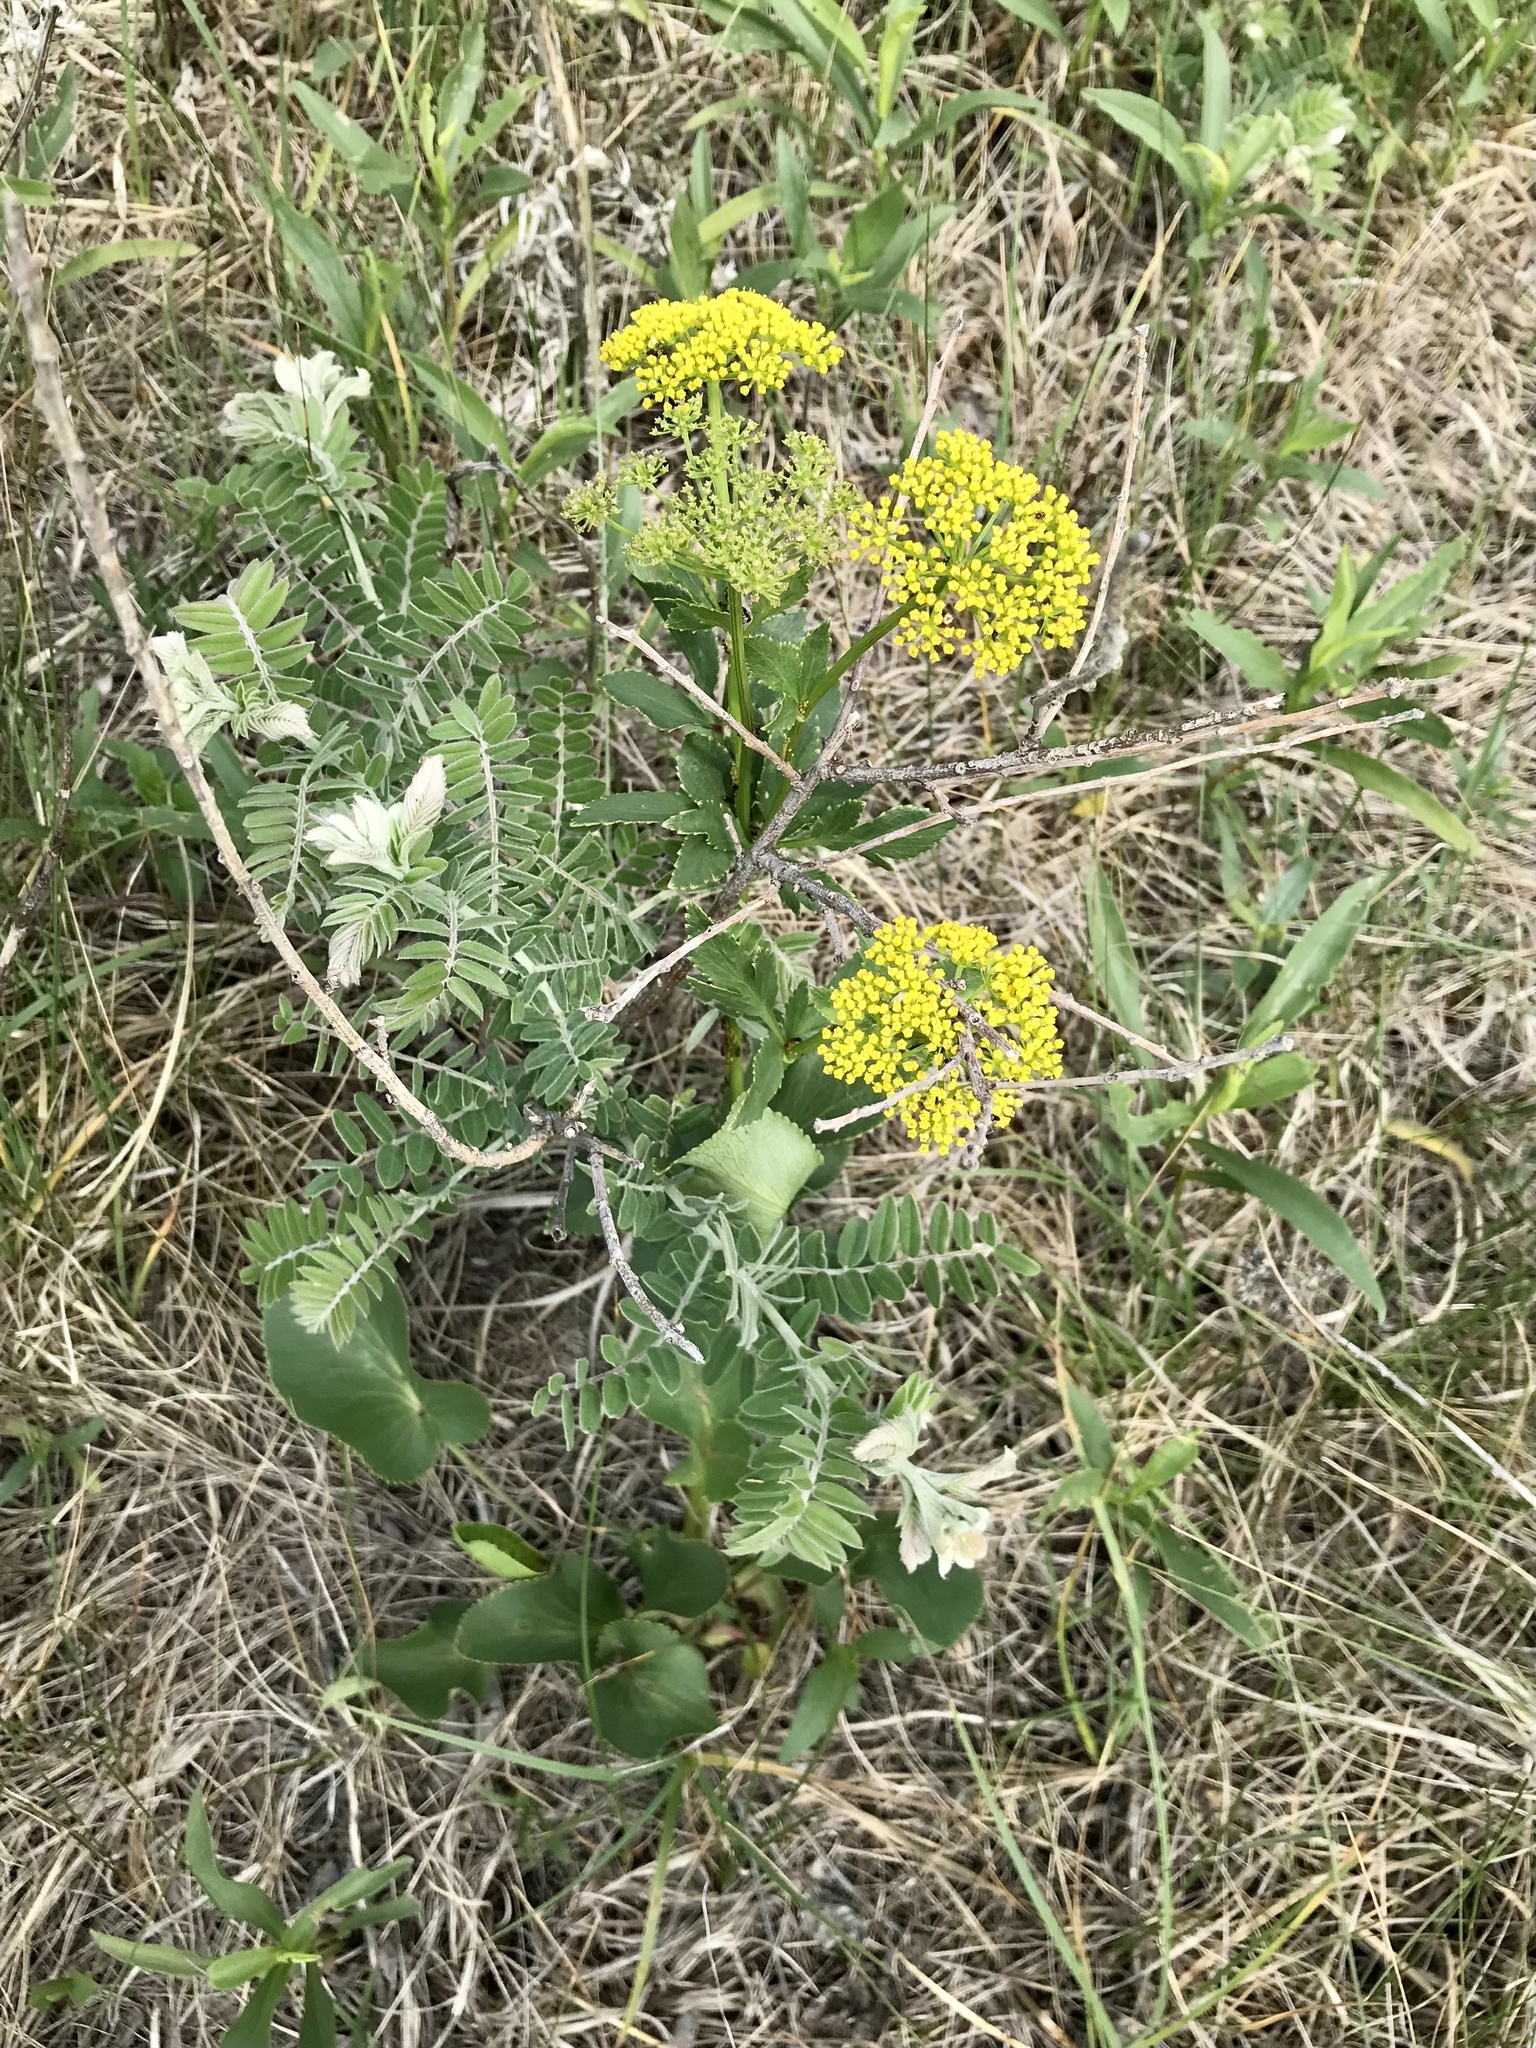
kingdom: Plantae
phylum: Tracheophyta
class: Magnoliopsida
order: Apiales
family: Apiaceae
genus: Zizia
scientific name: Zizia aptera
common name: Heart-leaved alexanders
